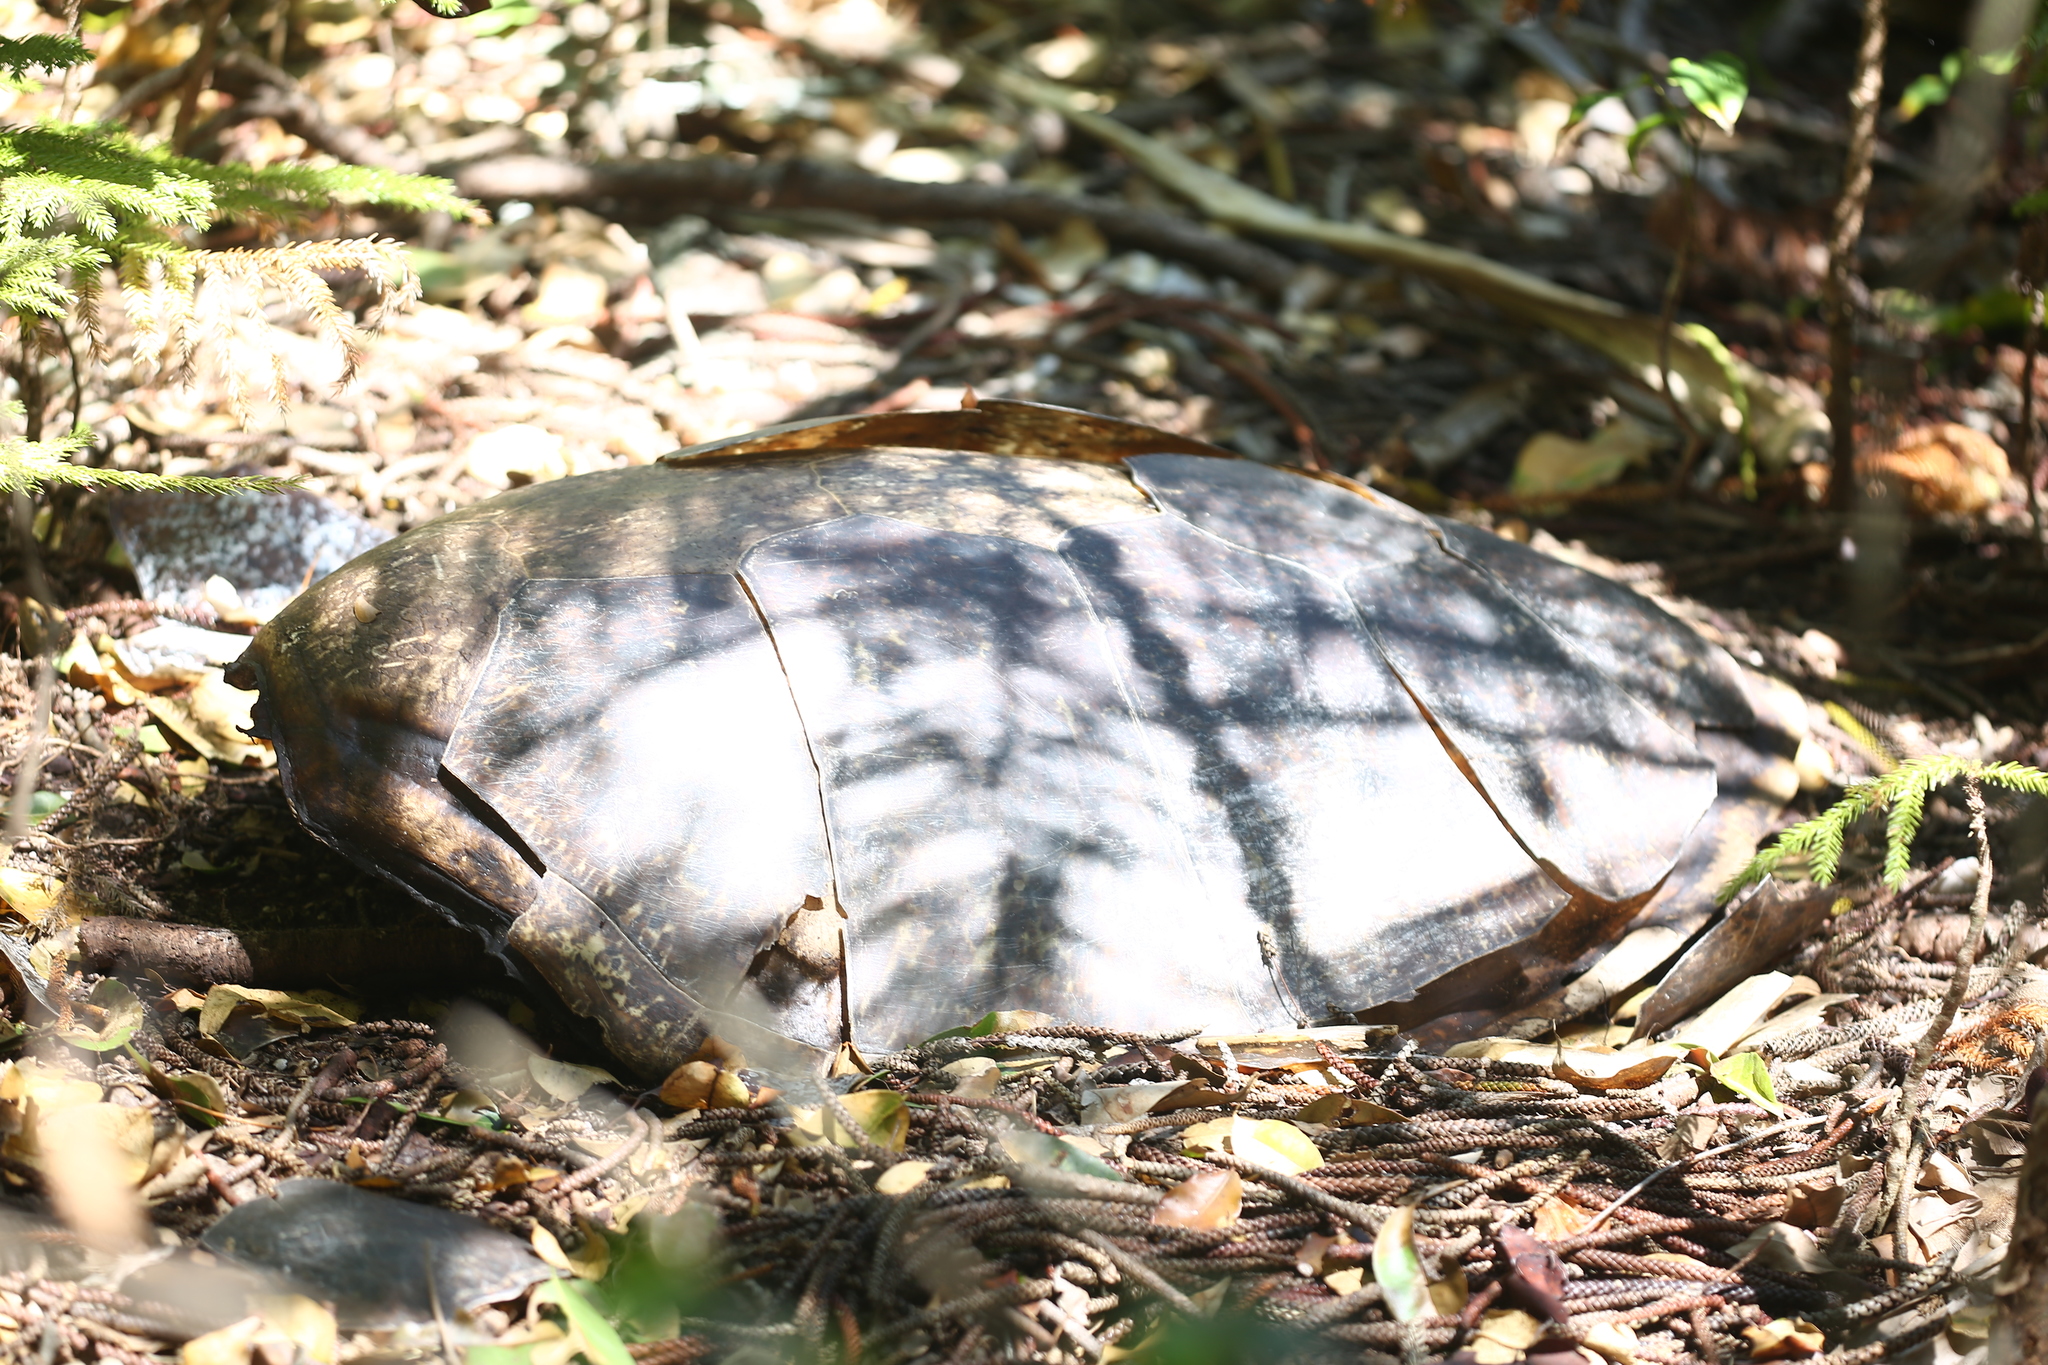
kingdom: Animalia
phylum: Chordata
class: Testudines
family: Cheloniidae
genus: Chelonia
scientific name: Chelonia mydas
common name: Green turtle
